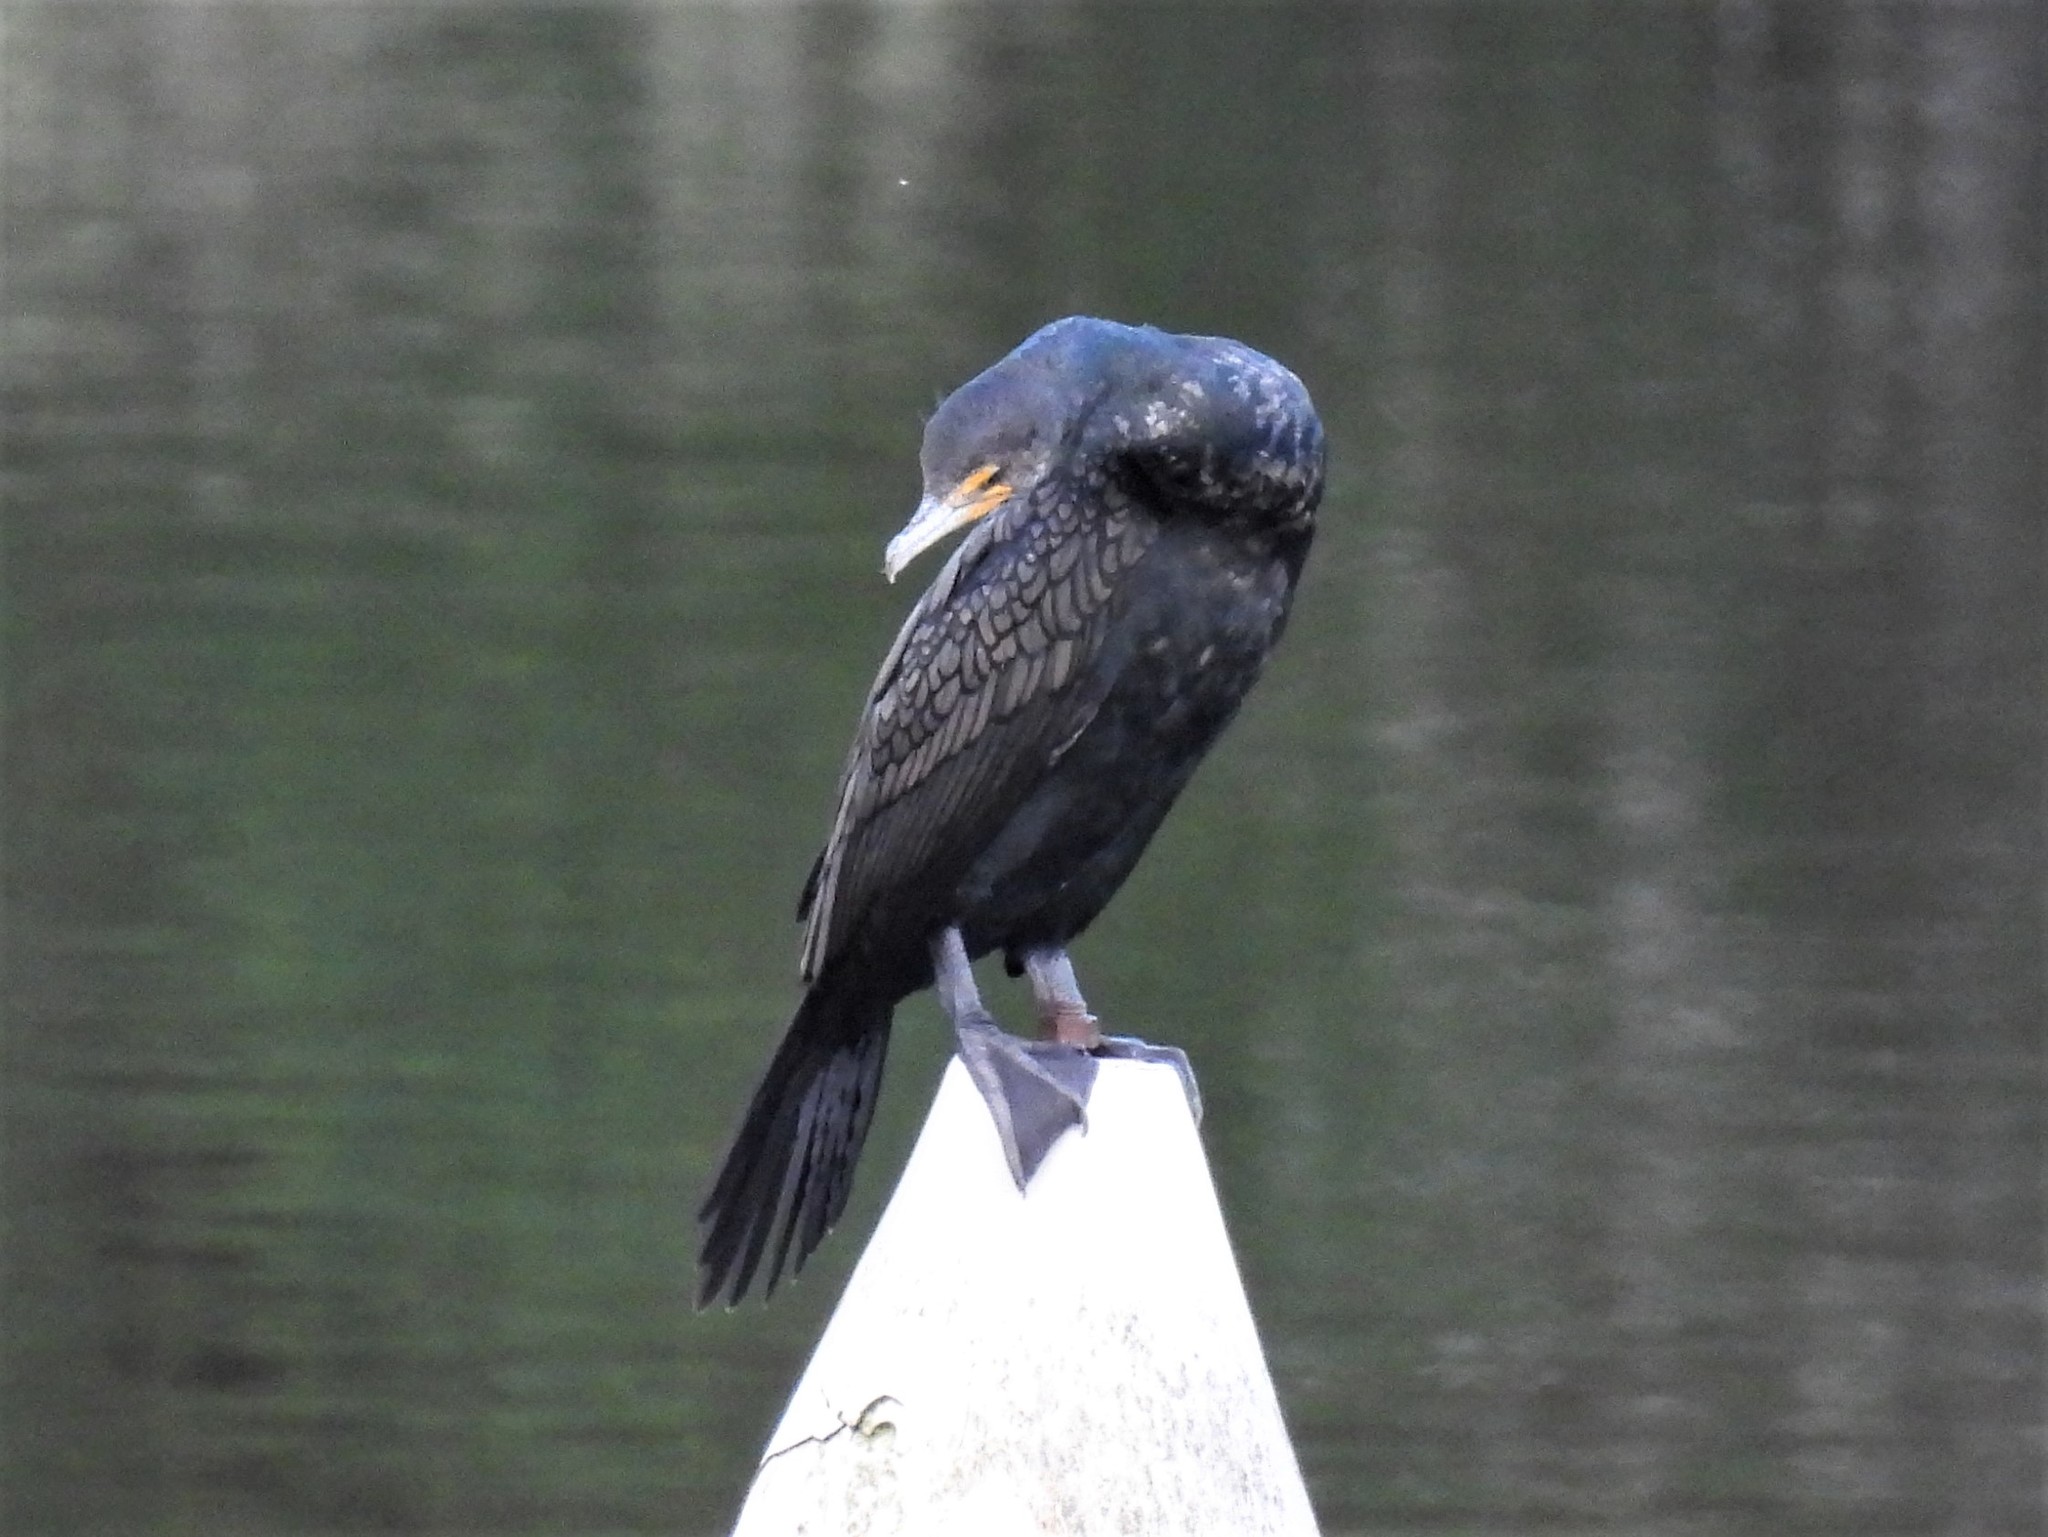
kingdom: Animalia
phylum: Chordata
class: Aves
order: Suliformes
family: Phalacrocoracidae
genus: Phalacrocorax
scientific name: Phalacrocorax auritus
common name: Double-crested cormorant
